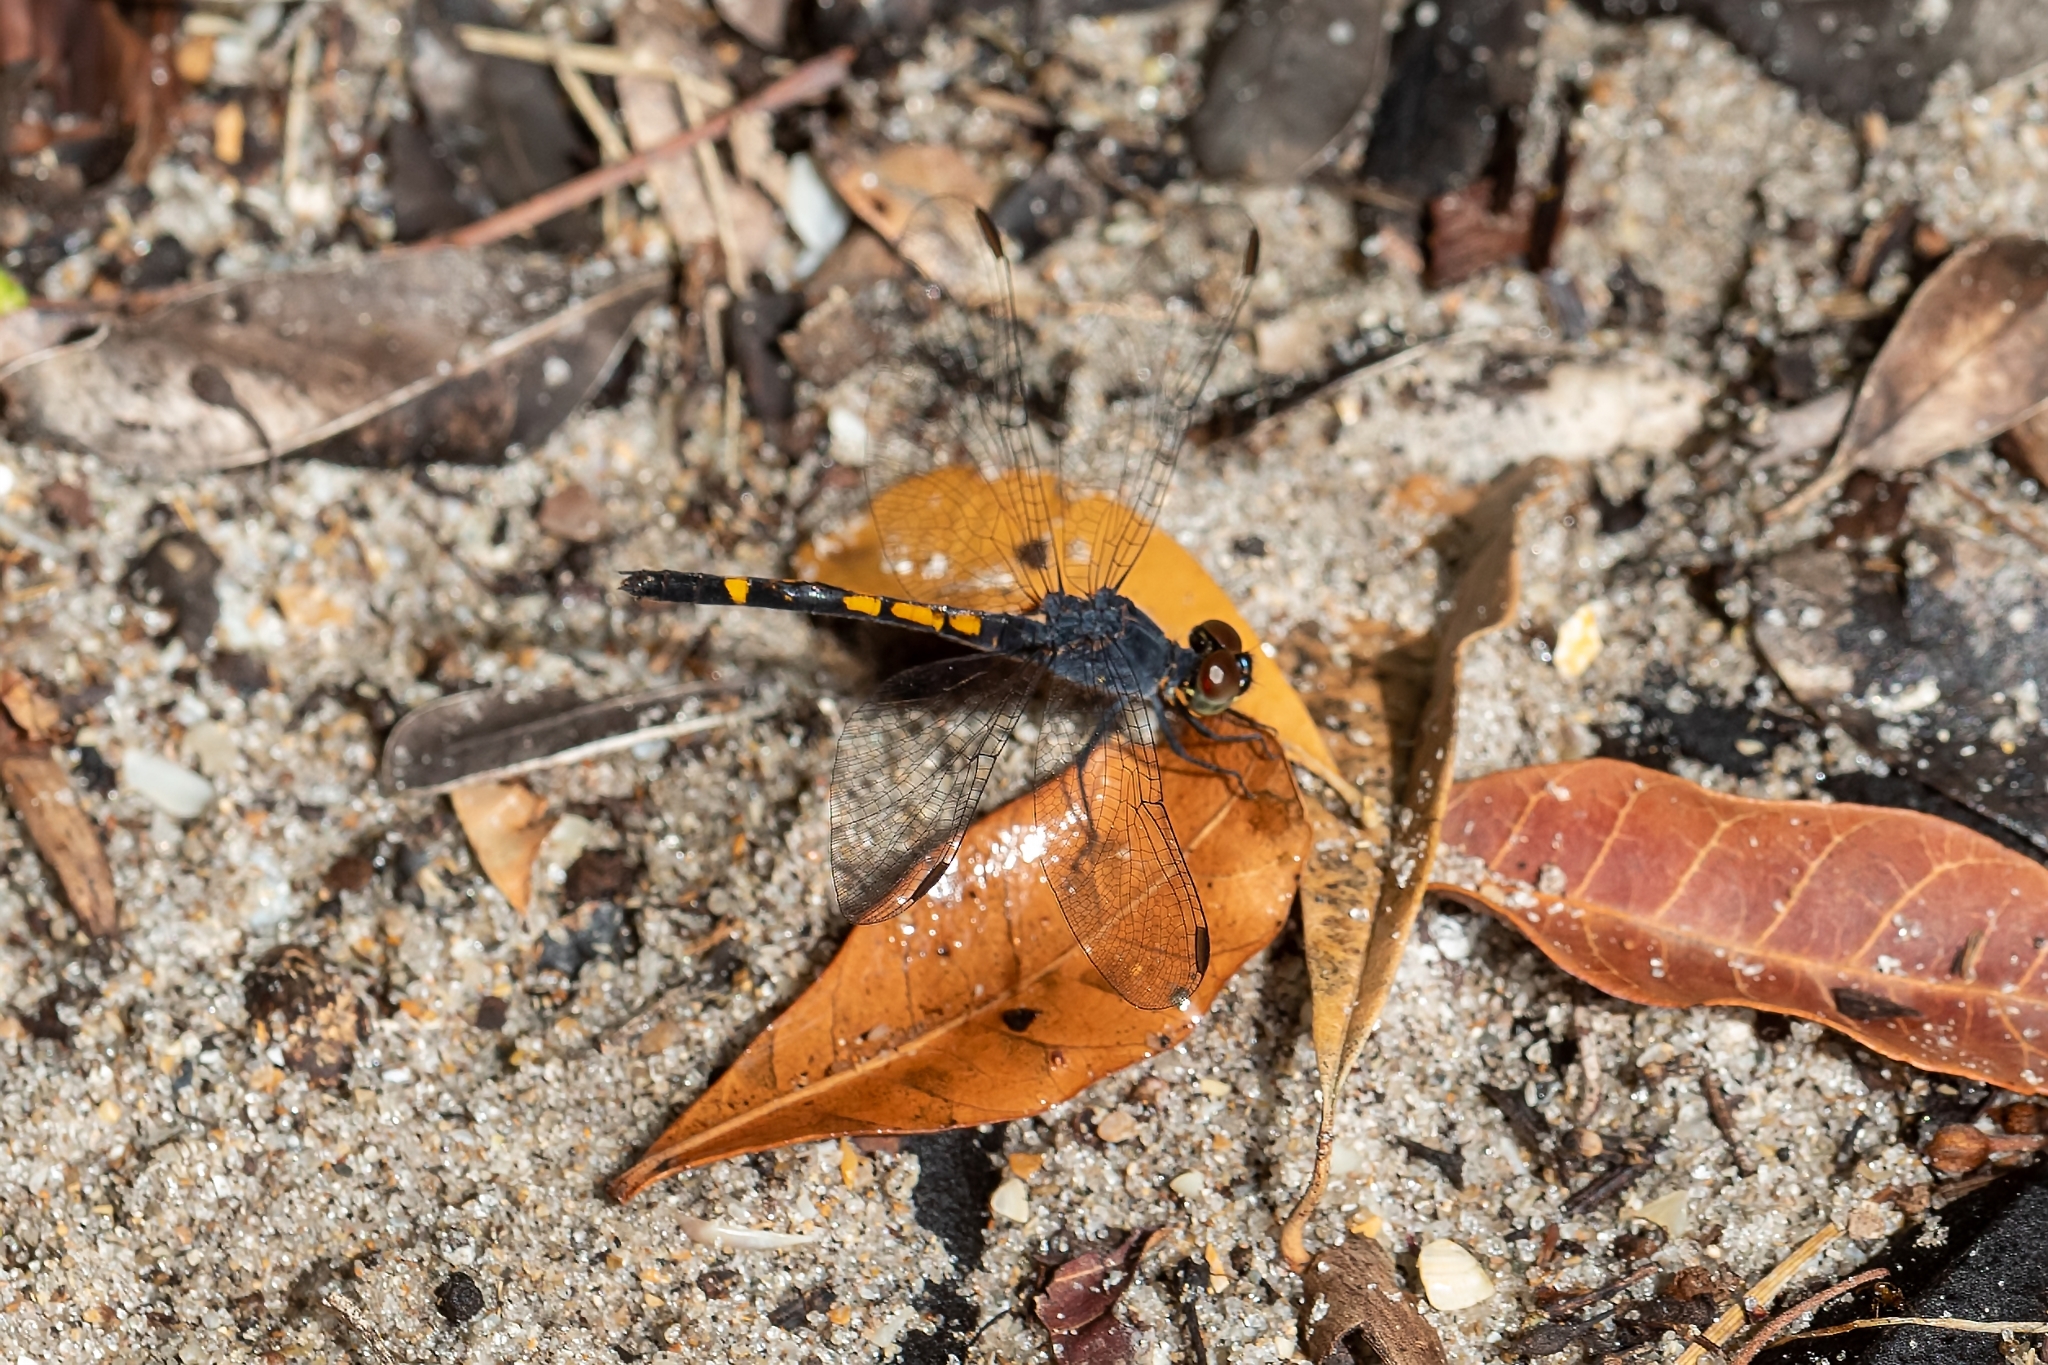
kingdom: Animalia
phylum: Arthropoda
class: Insecta
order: Odonata
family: Libellulidae
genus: Erythrodiplax
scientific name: Erythrodiplax berenice
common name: Seaside dragonlet
